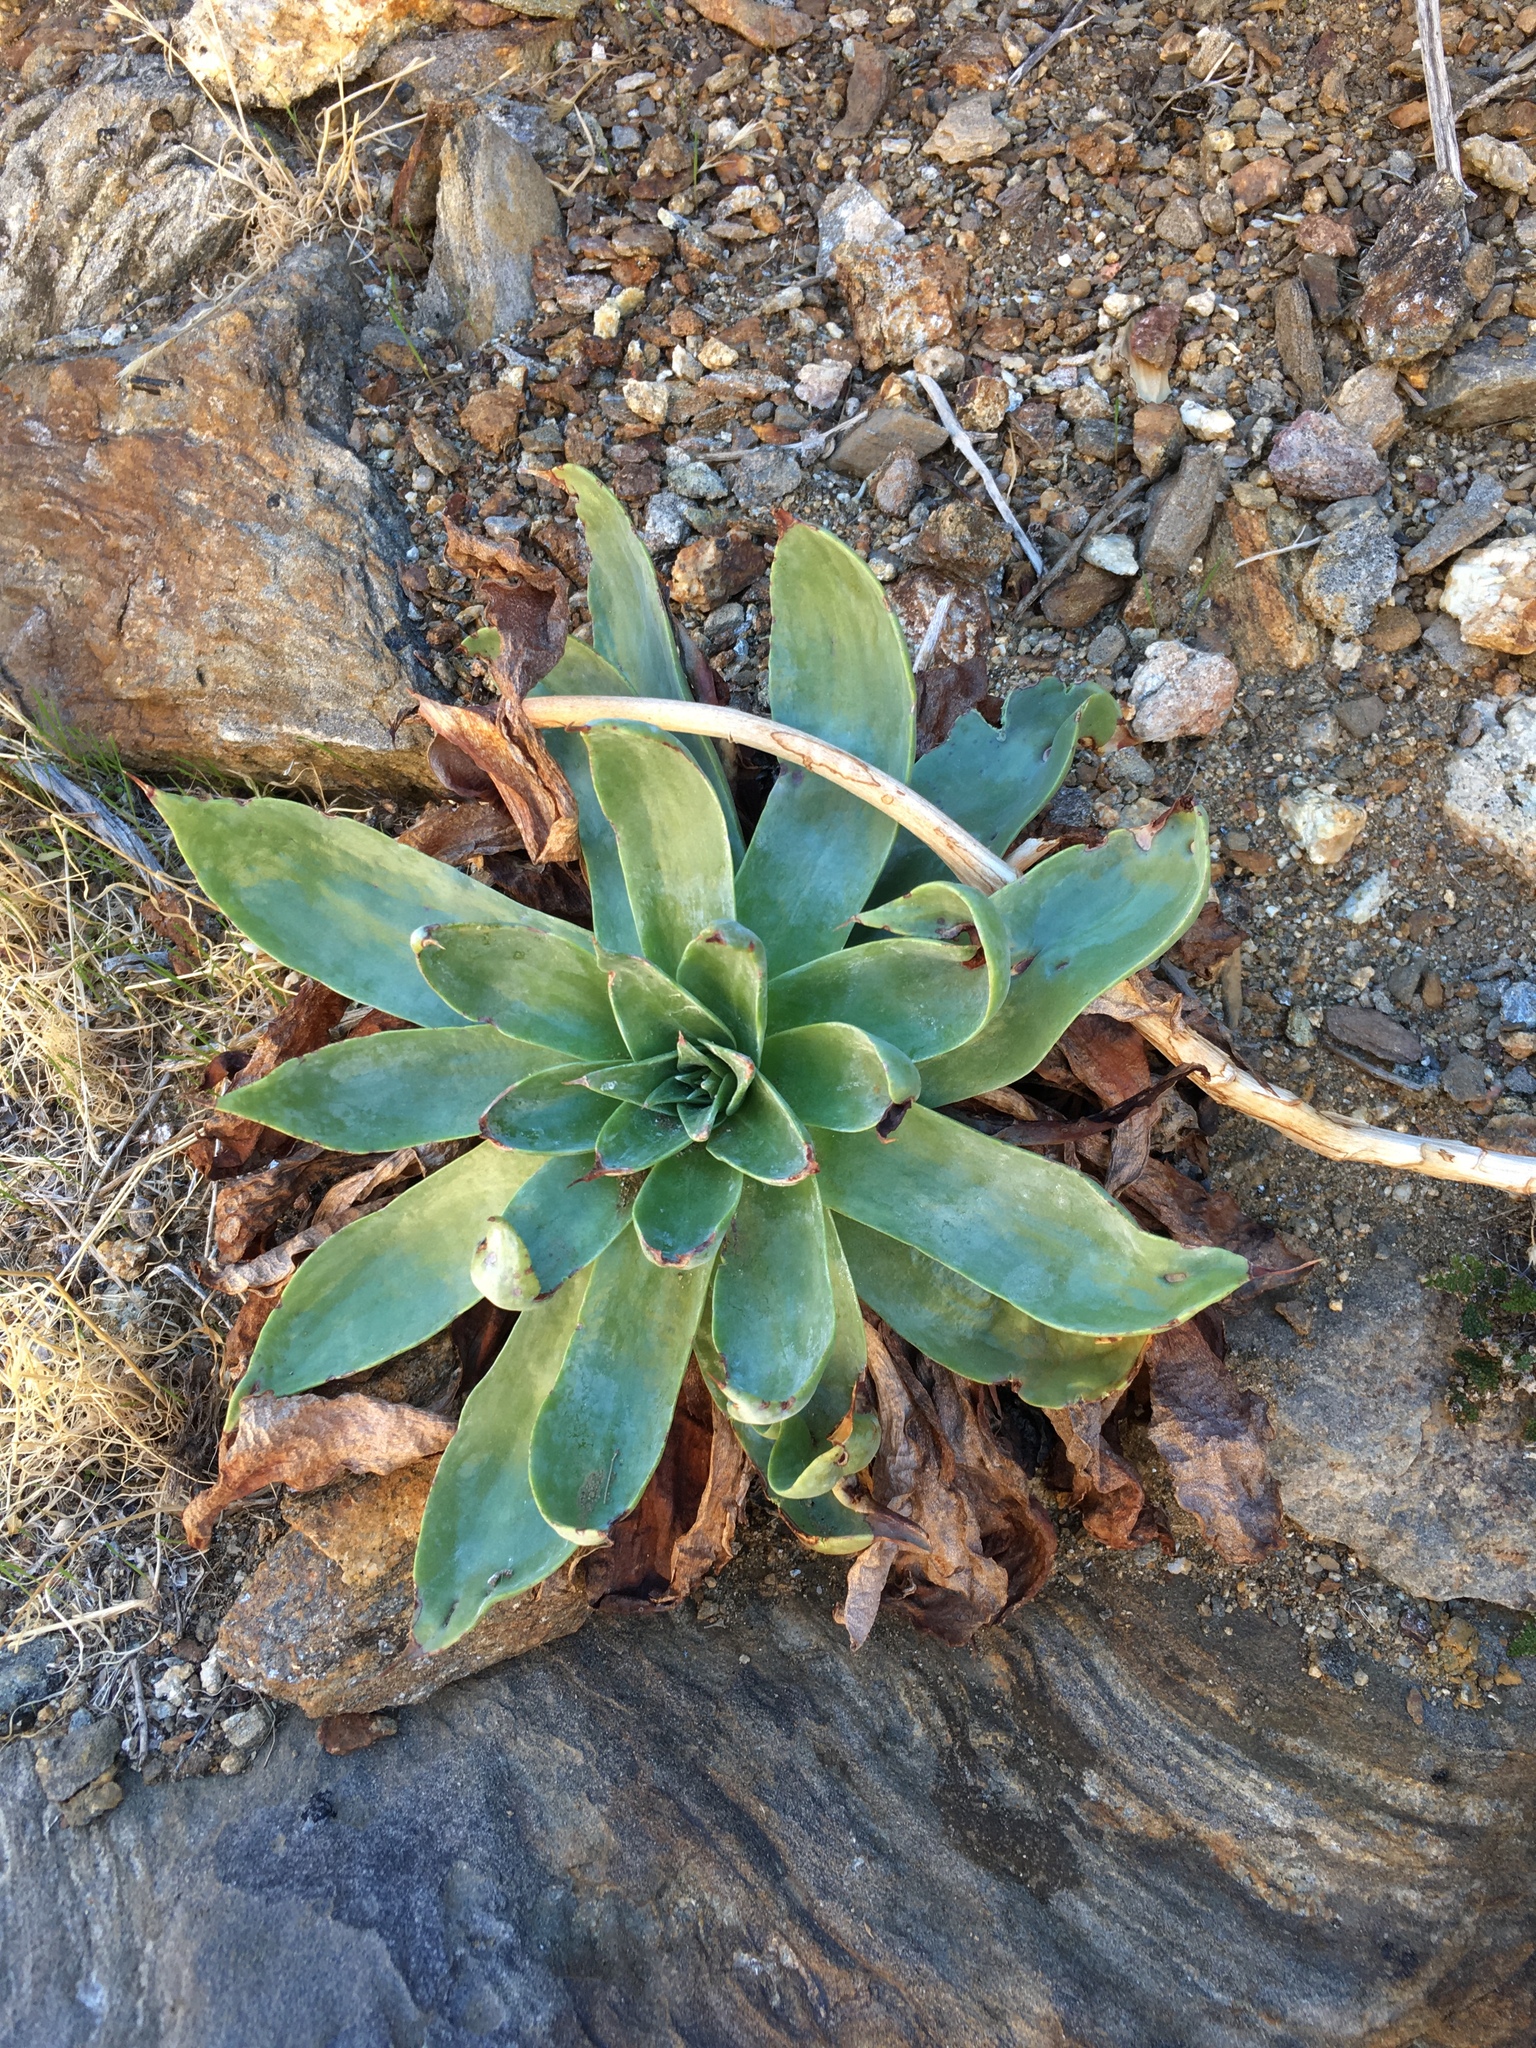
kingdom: Plantae
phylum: Tracheophyta
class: Magnoliopsida
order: Saxifragales
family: Crassulaceae
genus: Dudleya
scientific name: Dudleya arizonica
